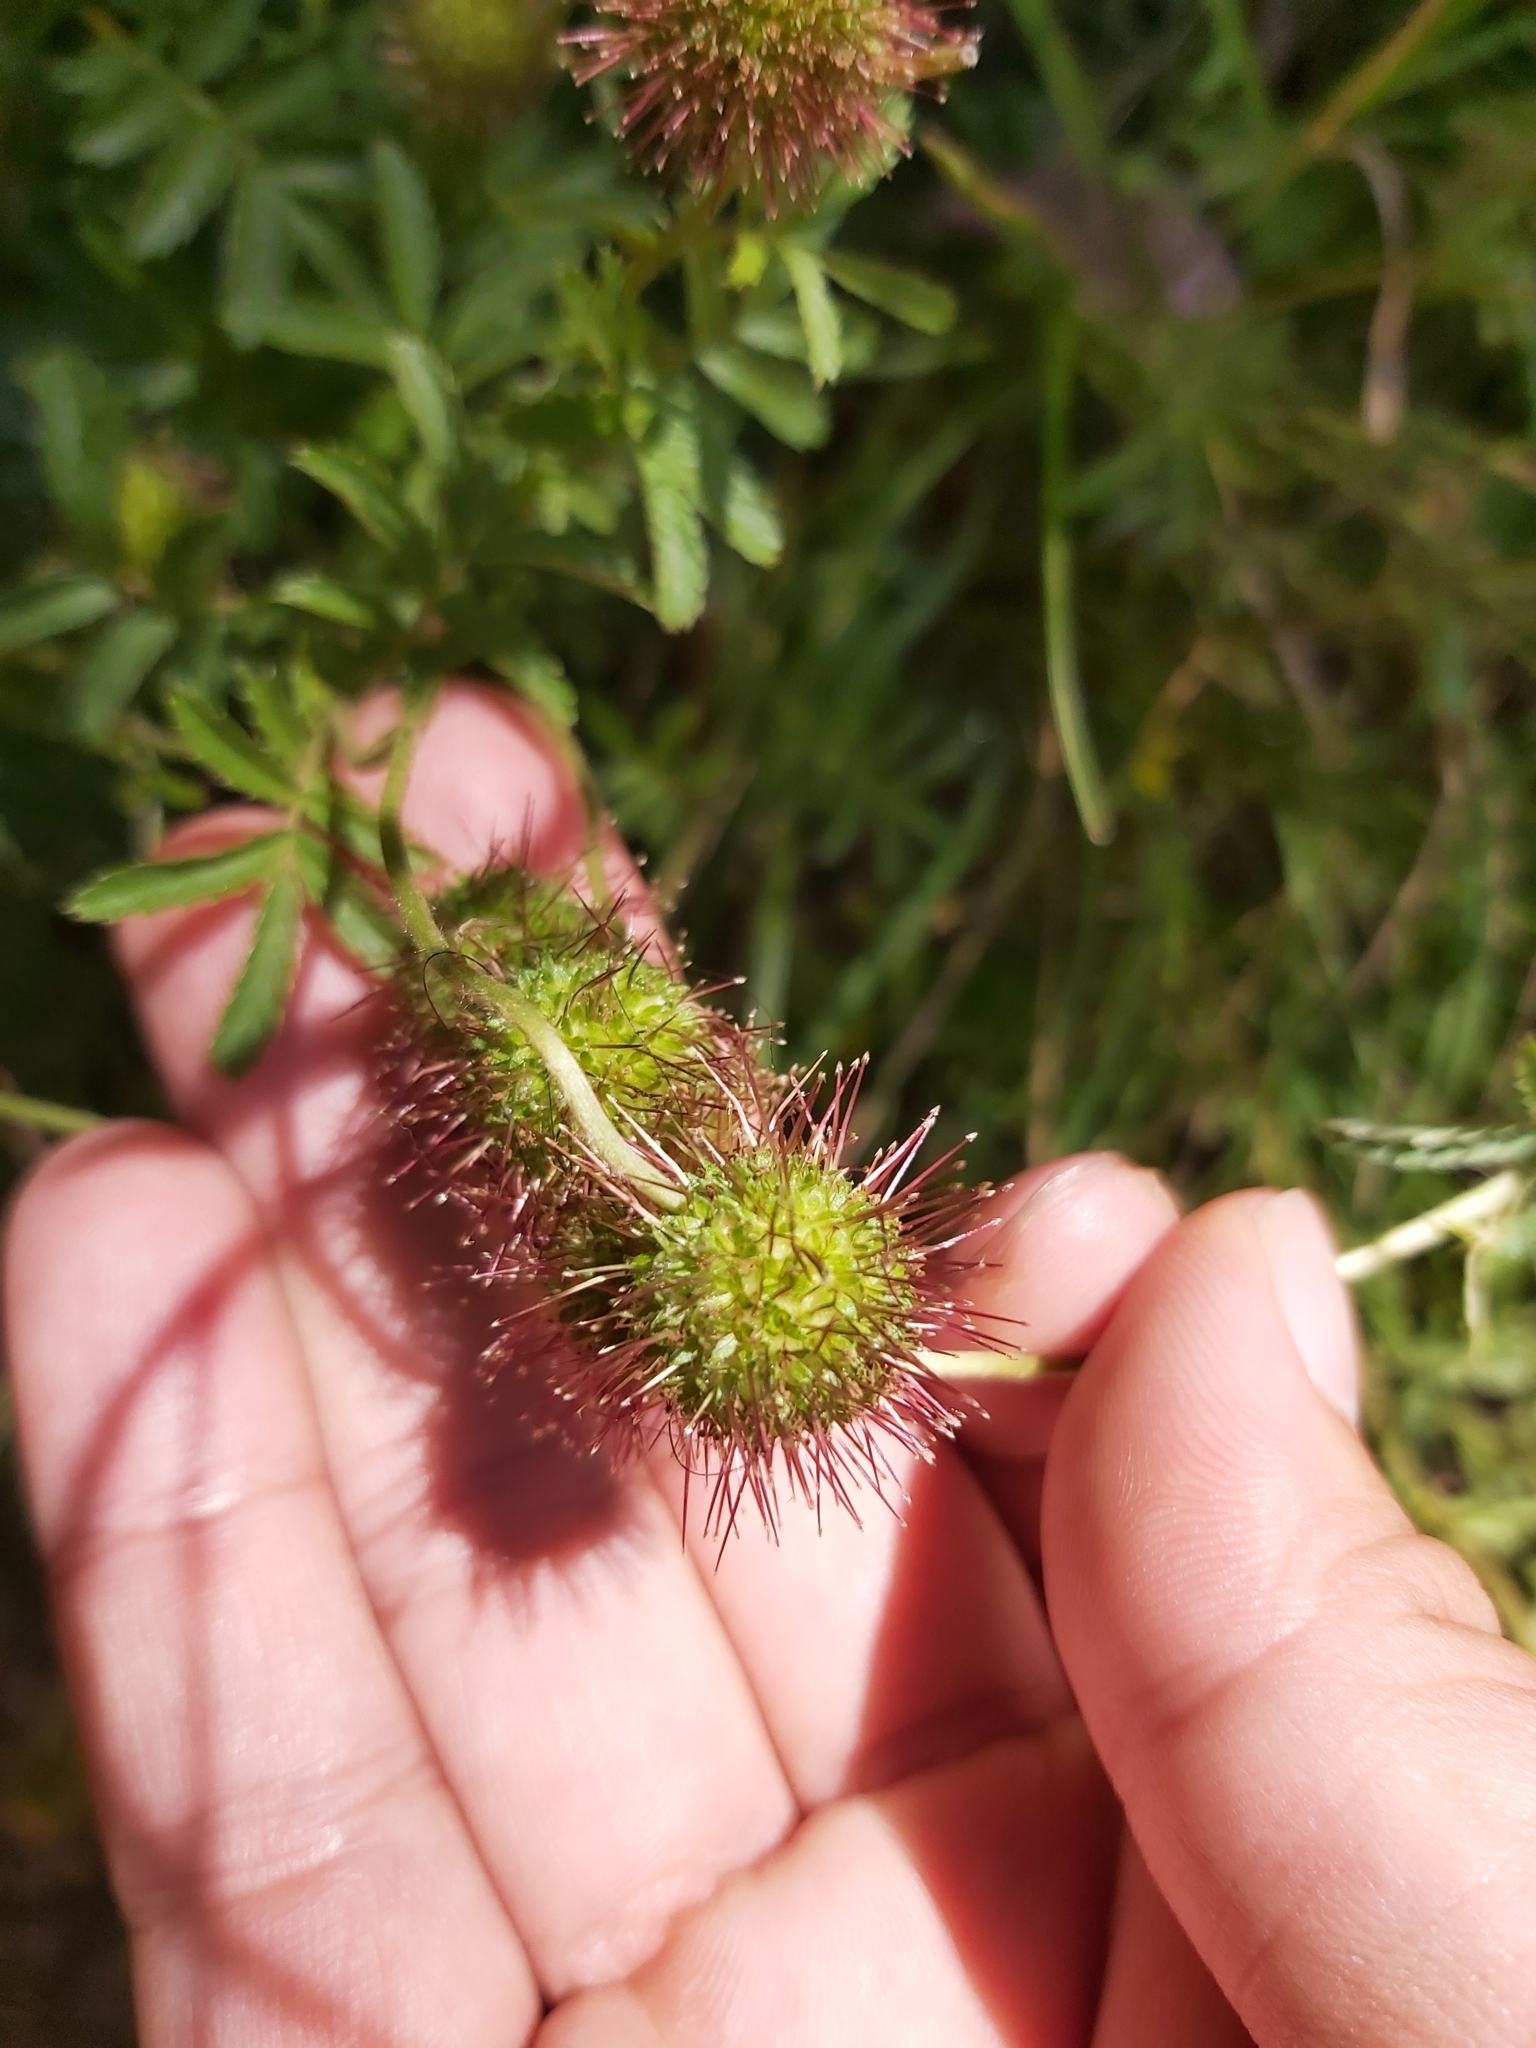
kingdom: Plantae
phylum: Tracheophyta
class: Magnoliopsida
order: Rosales
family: Rosaceae
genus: Acaena
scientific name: Acaena novae-zelandiae
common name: Pirri-pirri-bur
